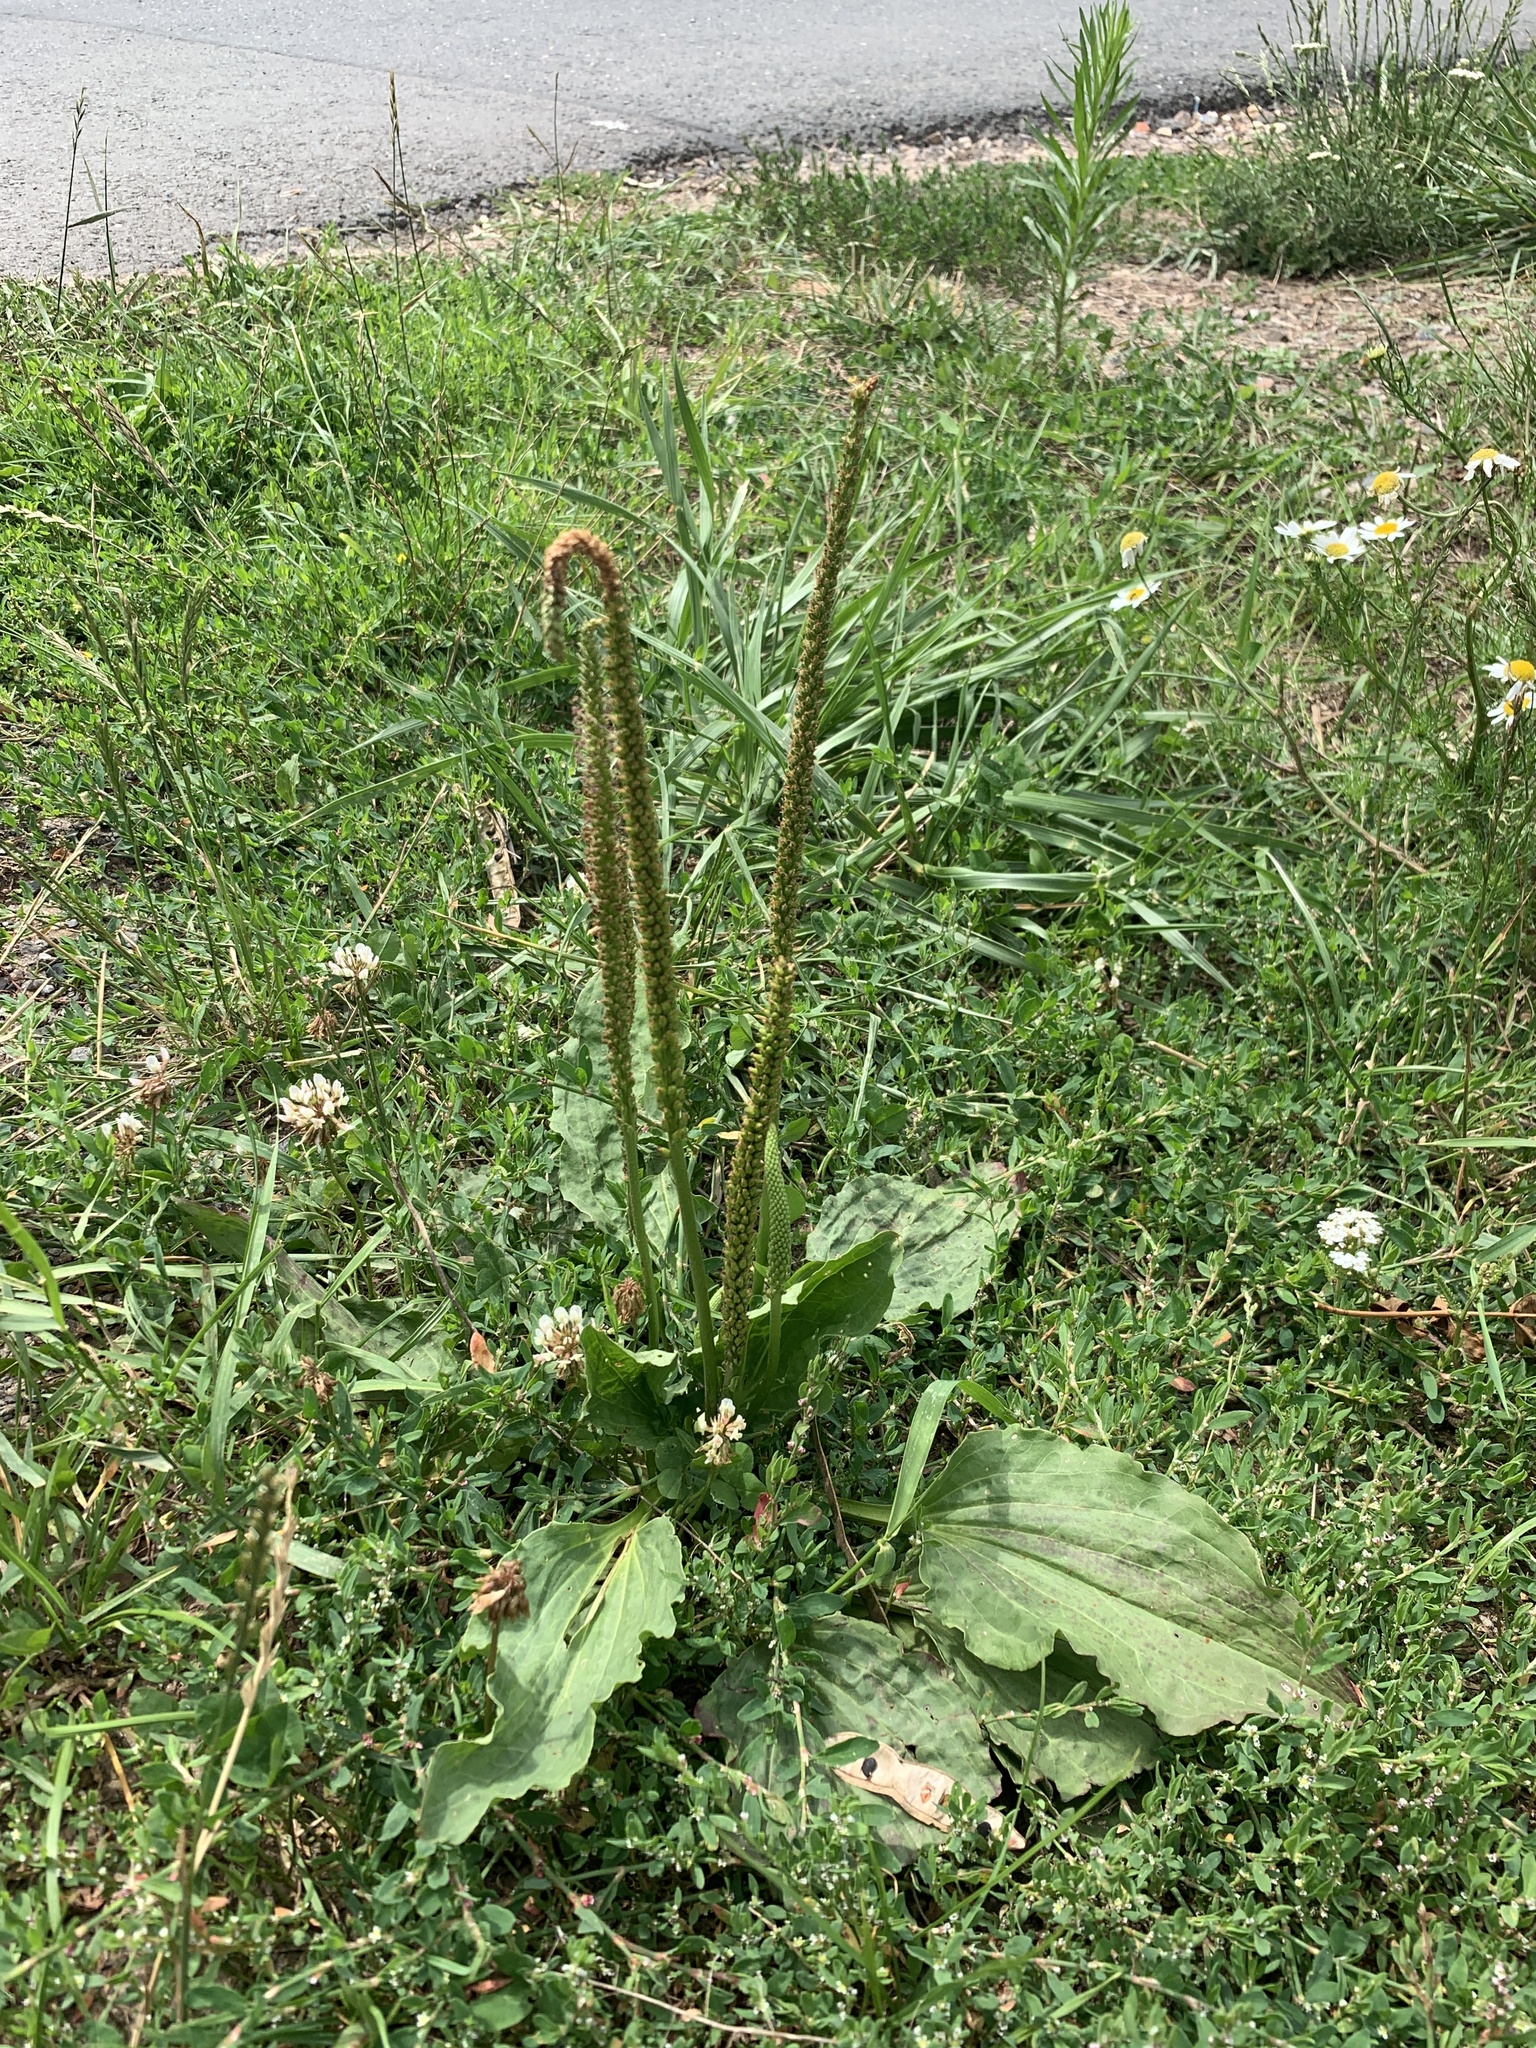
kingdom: Plantae
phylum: Tracheophyta
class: Magnoliopsida
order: Lamiales
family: Plantaginaceae
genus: Plantago
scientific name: Plantago major
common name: Common plantain
